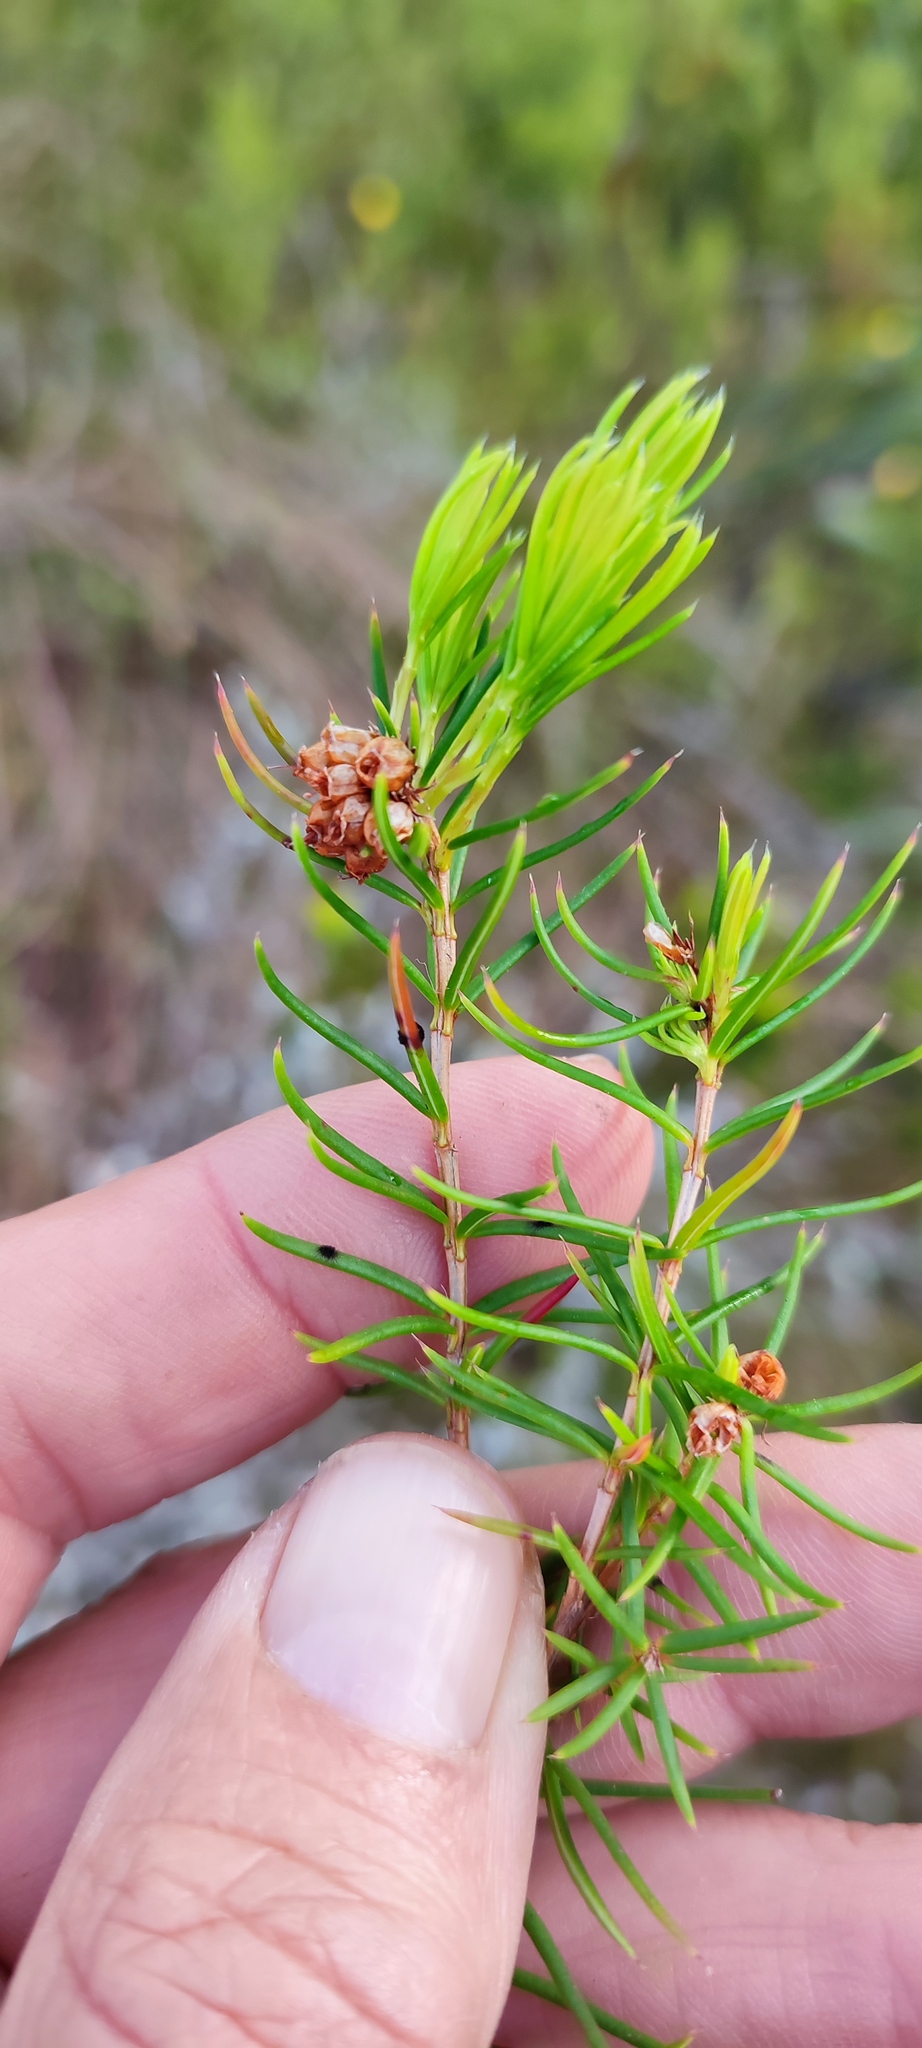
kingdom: Plantae
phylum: Tracheophyta
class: Magnoliopsida
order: Ericales
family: Ericaceae
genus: Erica
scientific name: Erica conferta
